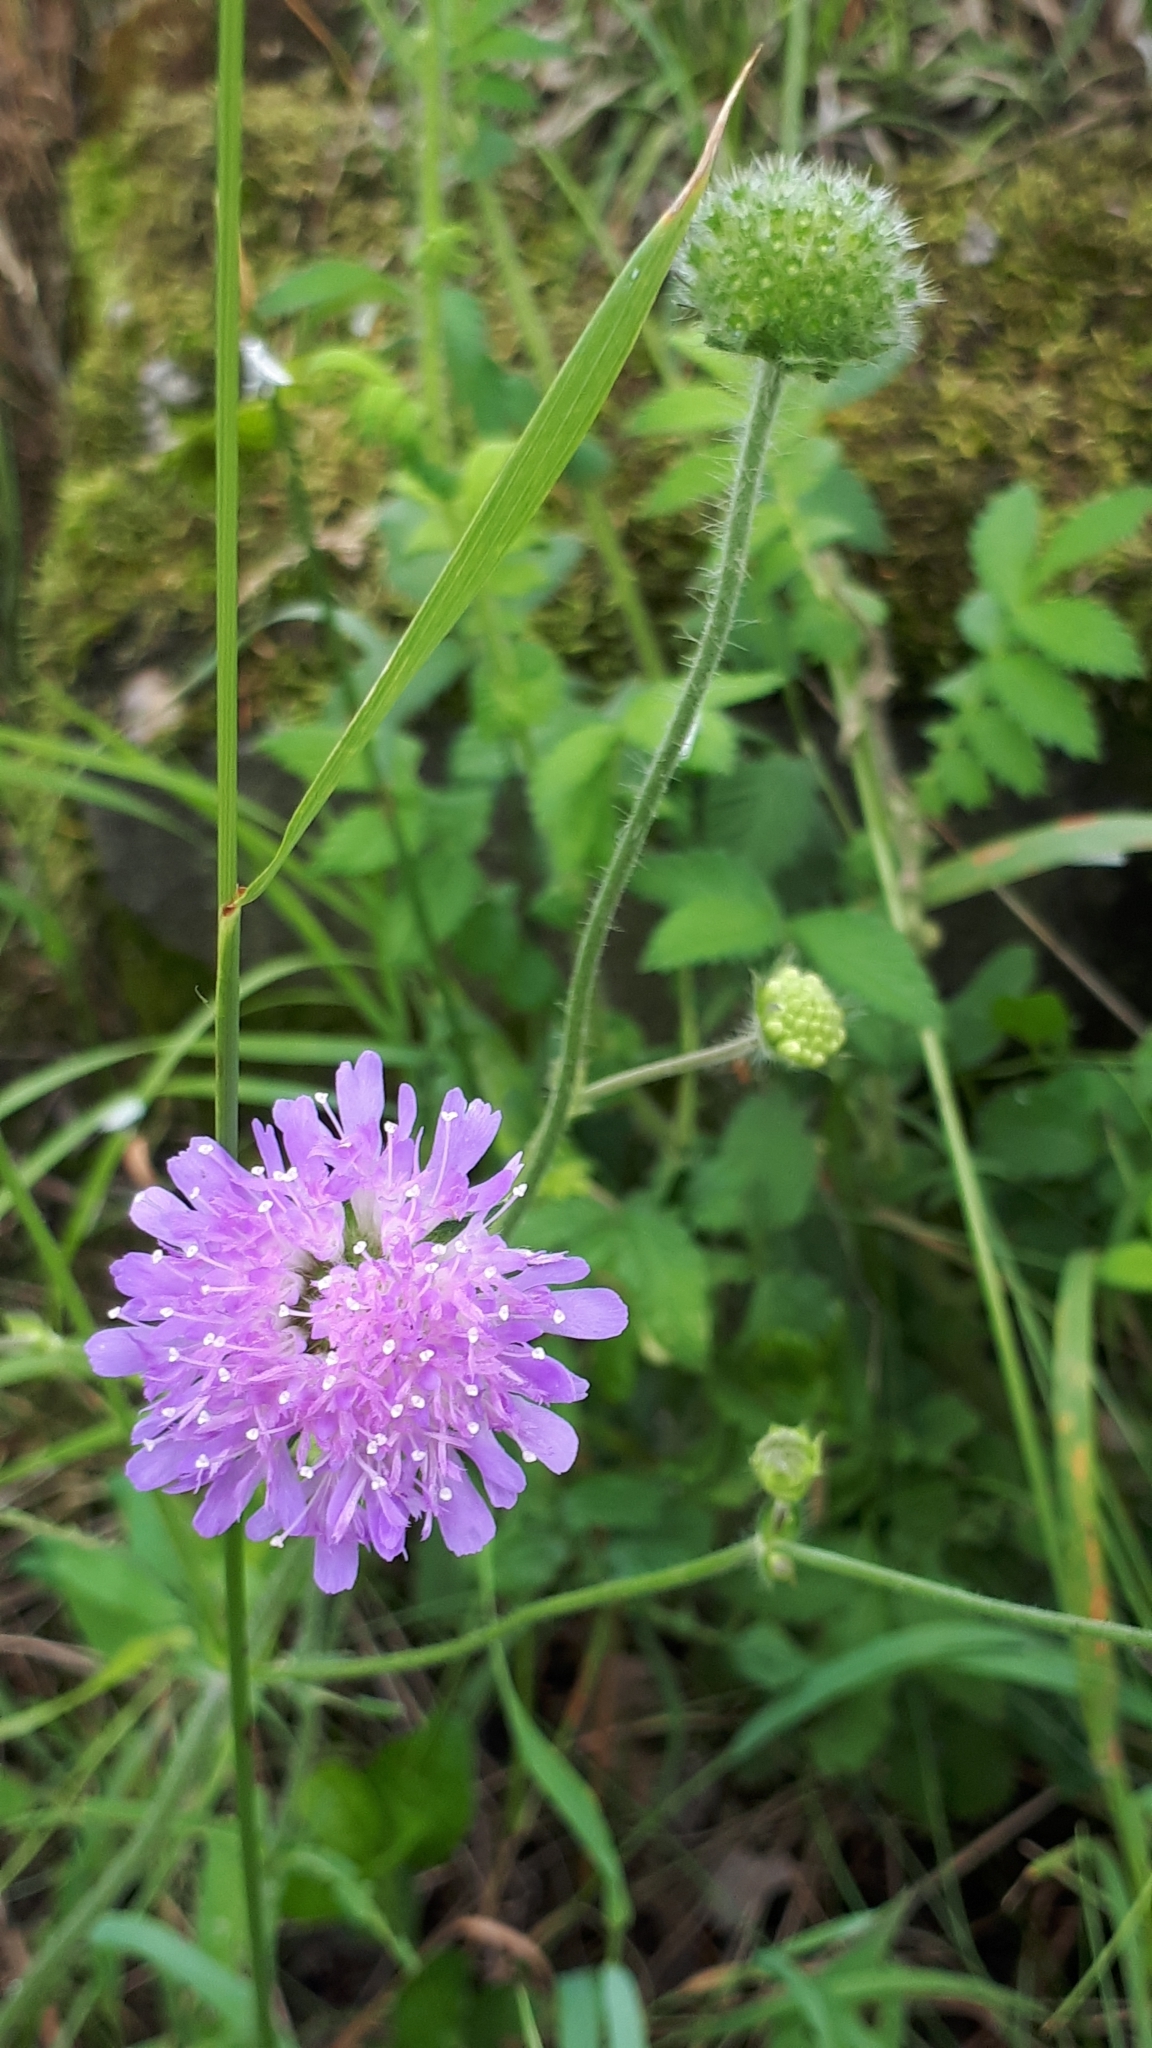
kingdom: Plantae
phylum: Tracheophyta
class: Magnoliopsida
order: Dipsacales
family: Caprifoliaceae
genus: Knautia
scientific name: Knautia arvensis
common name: Field scabiosa
